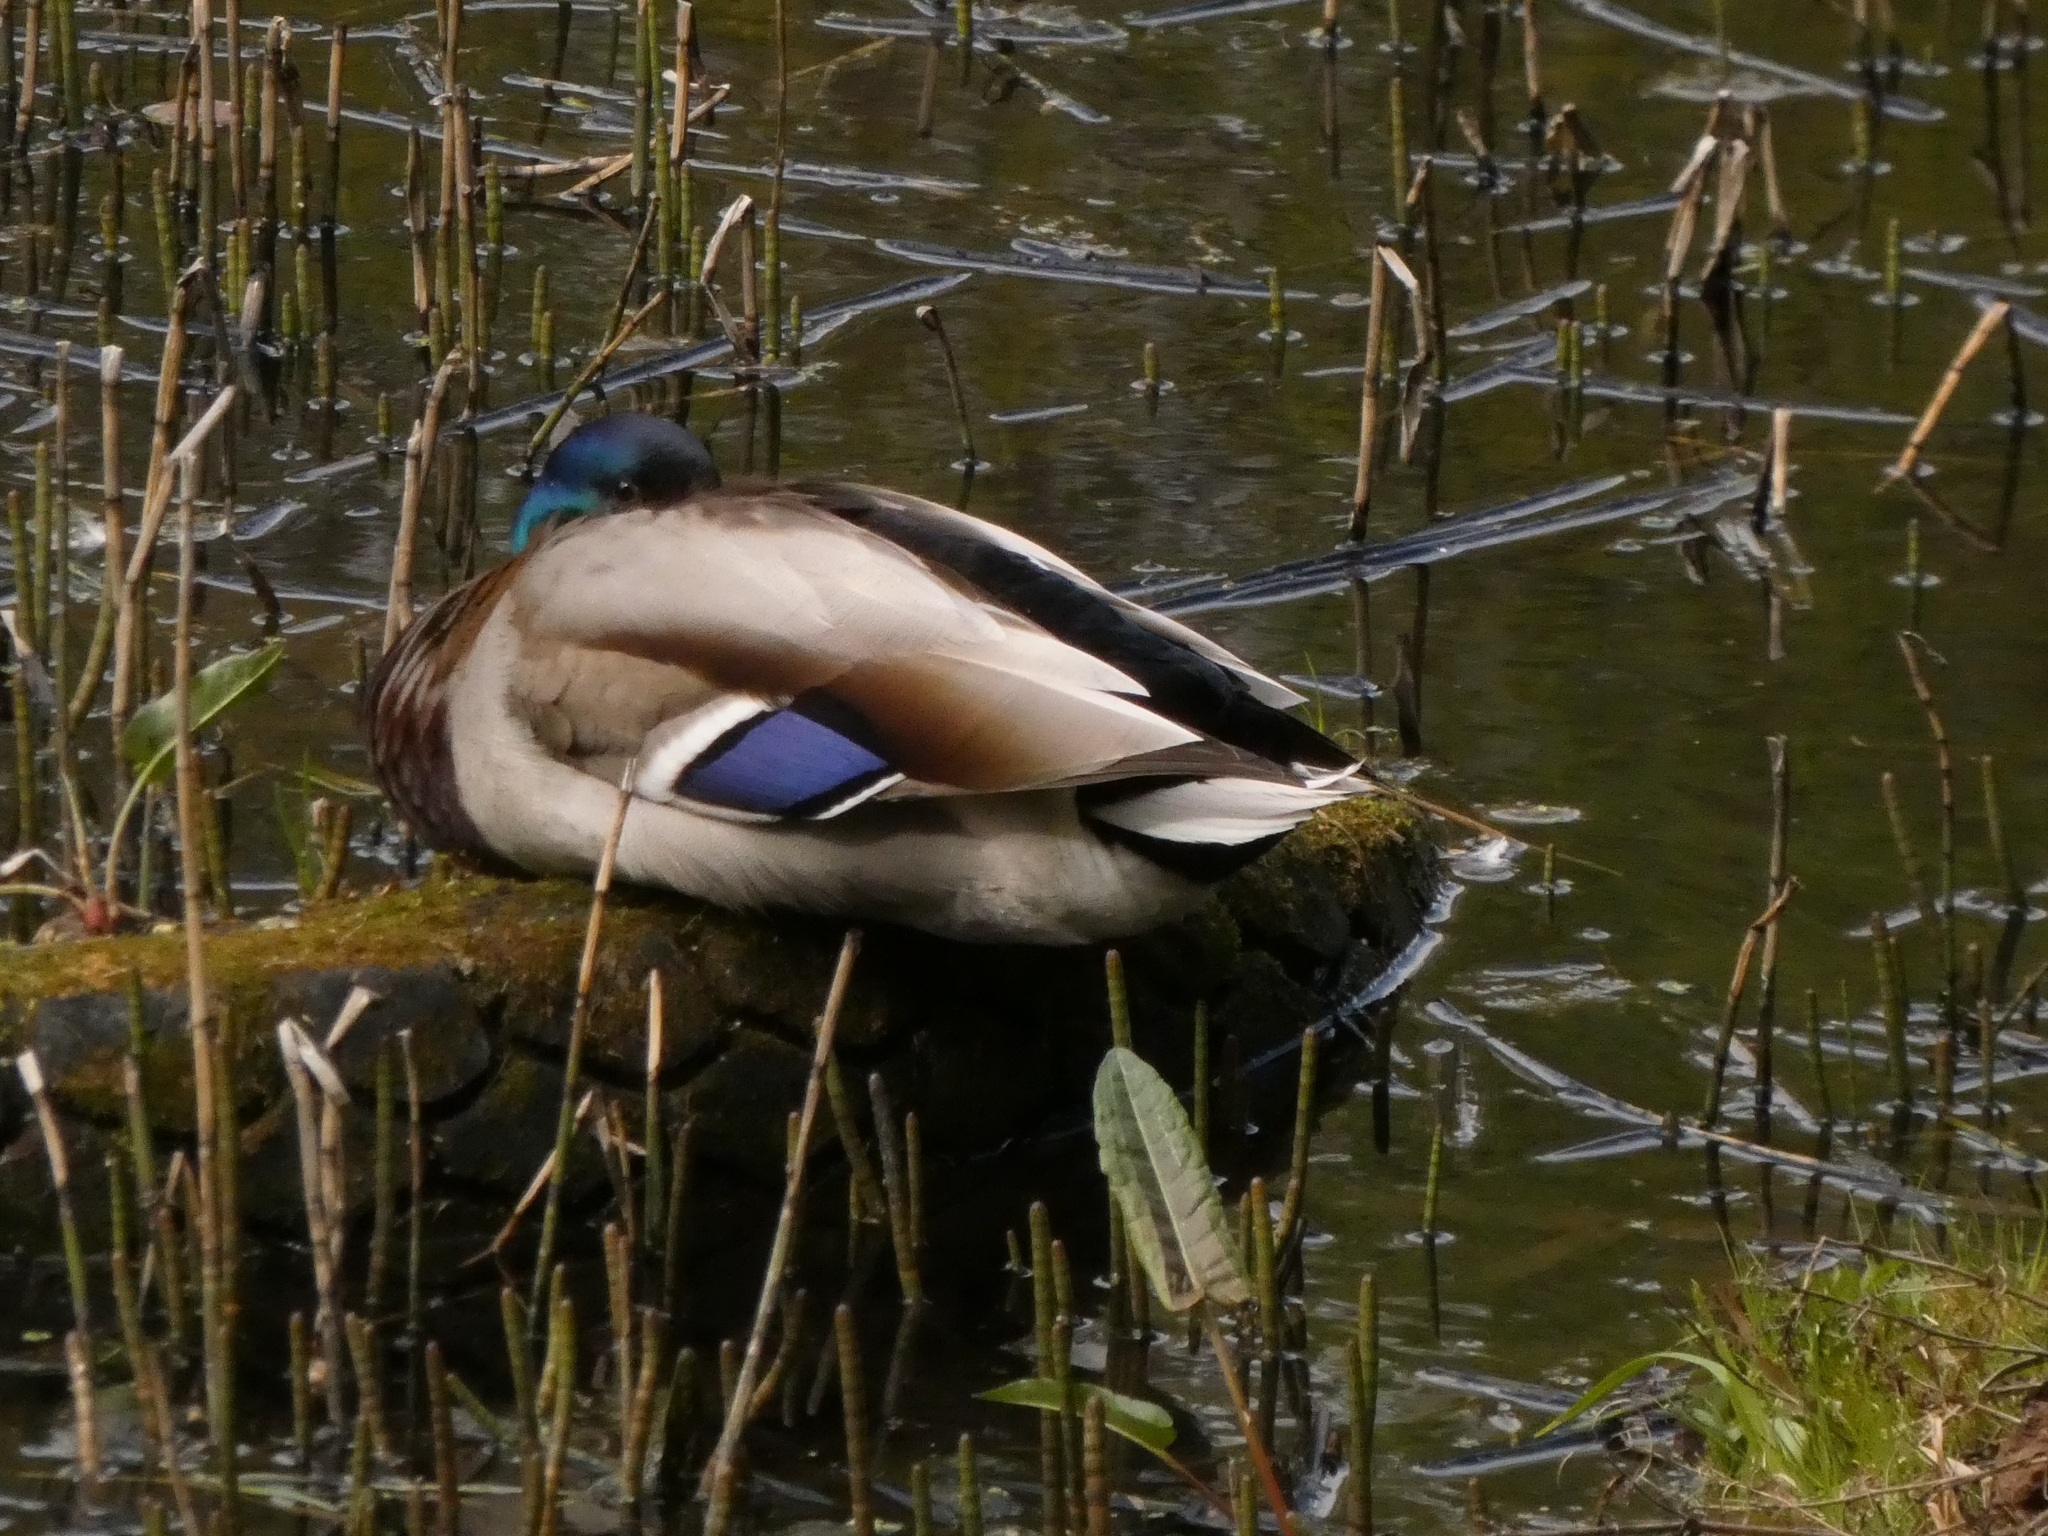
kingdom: Animalia
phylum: Chordata
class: Aves
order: Anseriformes
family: Anatidae
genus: Anas
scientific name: Anas platyrhynchos
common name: Mallard
